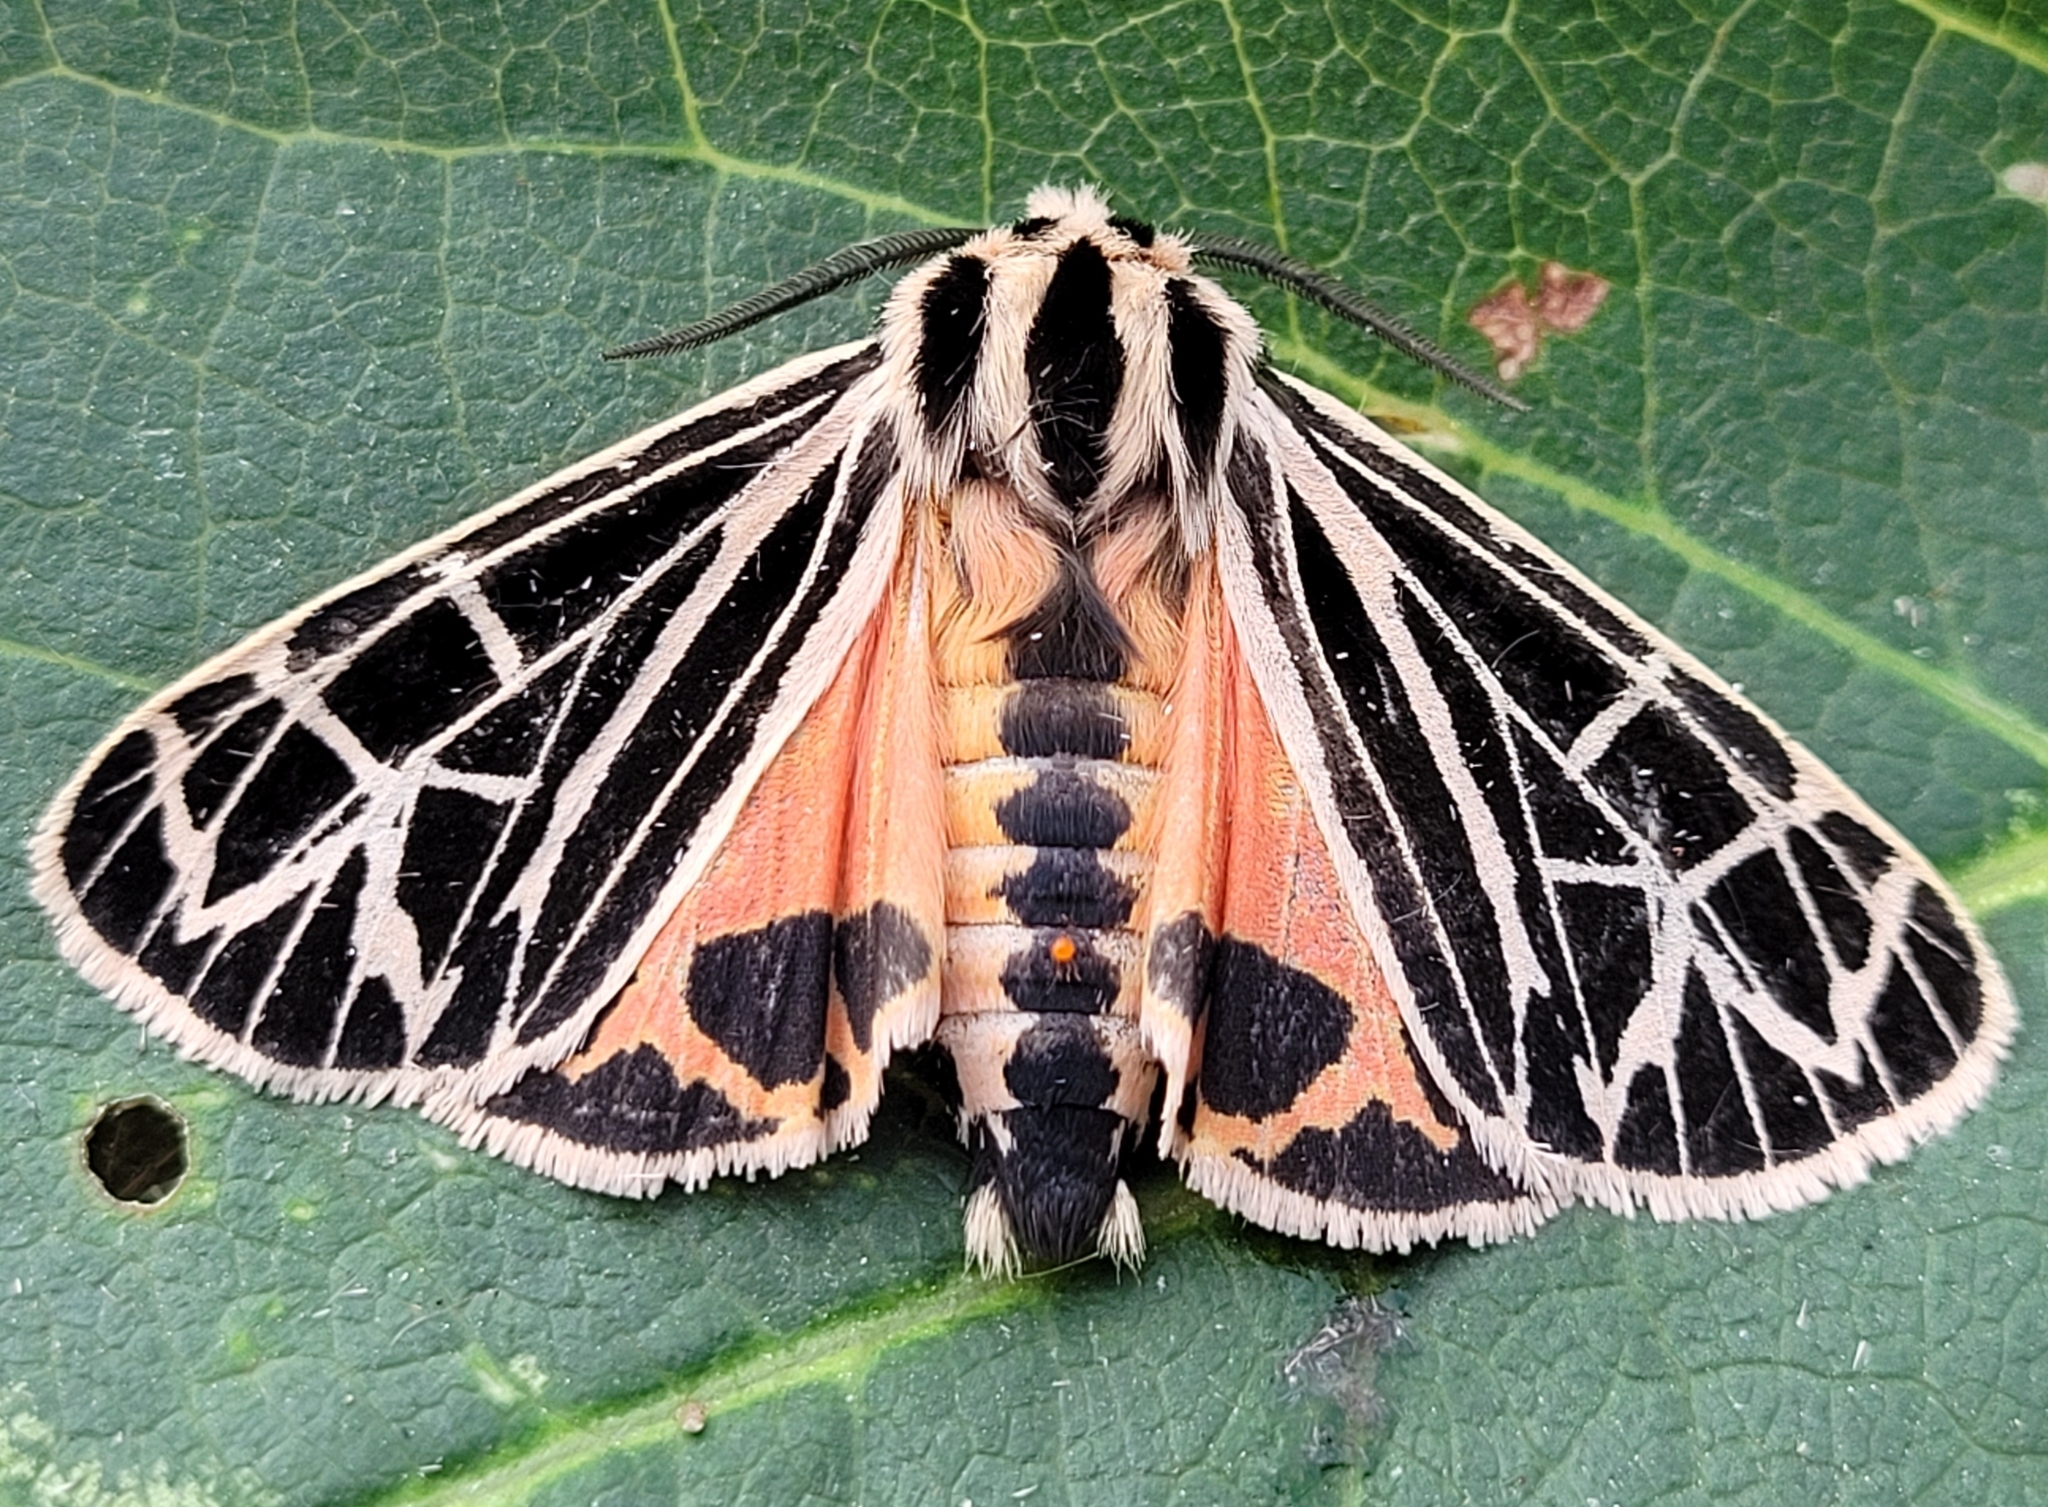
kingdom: Animalia
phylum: Arthropoda
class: Insecta
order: Lepidoptera
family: Erebidae
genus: Grammia
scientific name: Grammia parthenice
